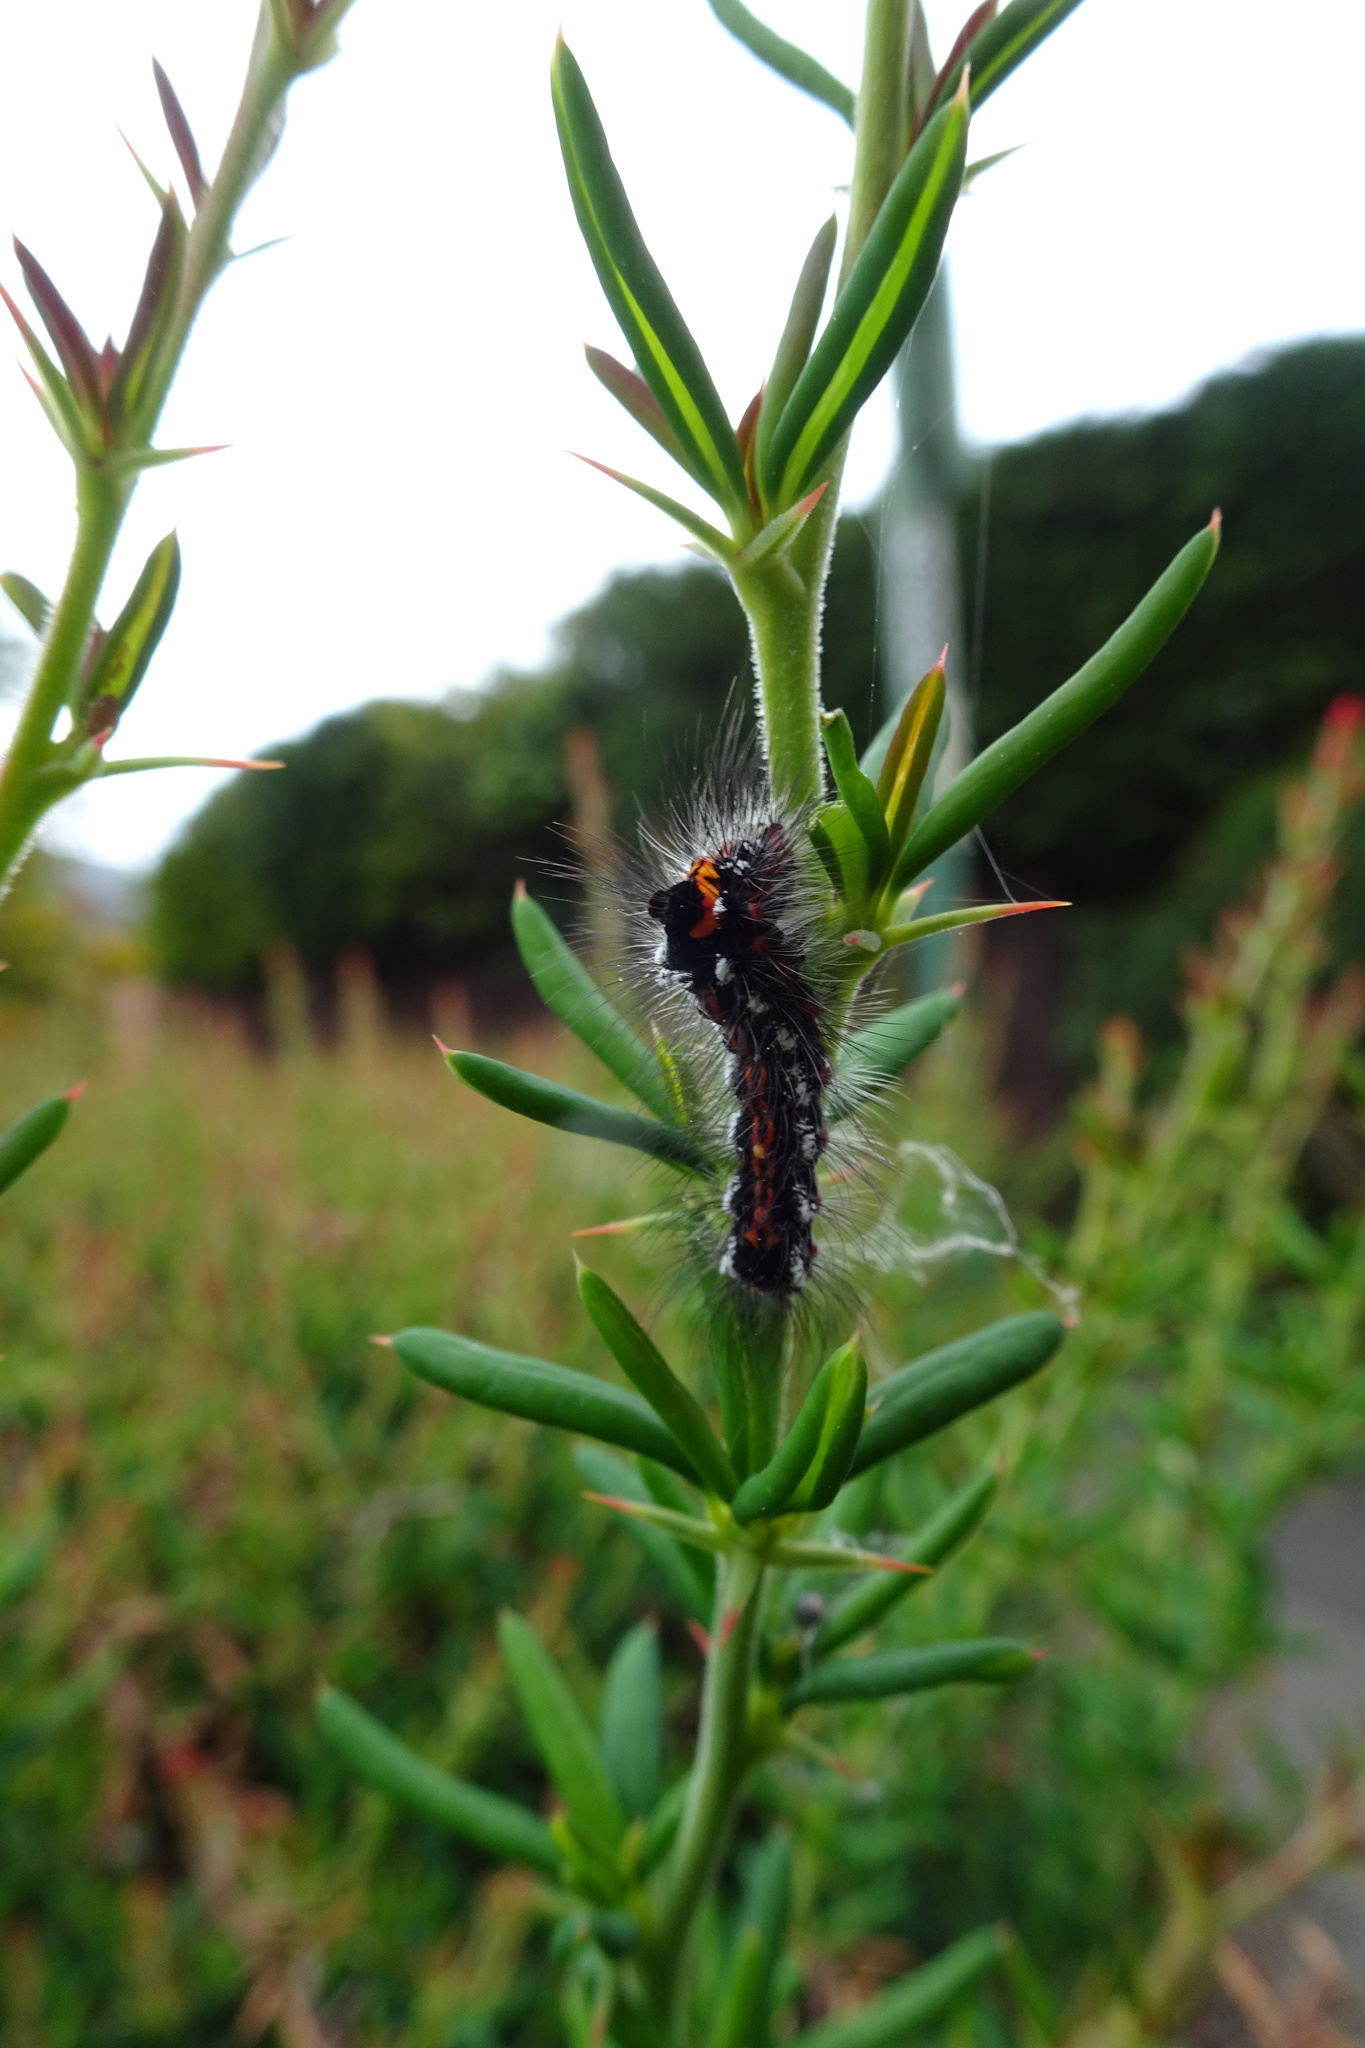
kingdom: Animalia
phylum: Arthropoda
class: Insecta
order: Lepidoptera
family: Erebidae
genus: Sphrageidus
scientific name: Sphrageidus similis
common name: Yellow-tail
